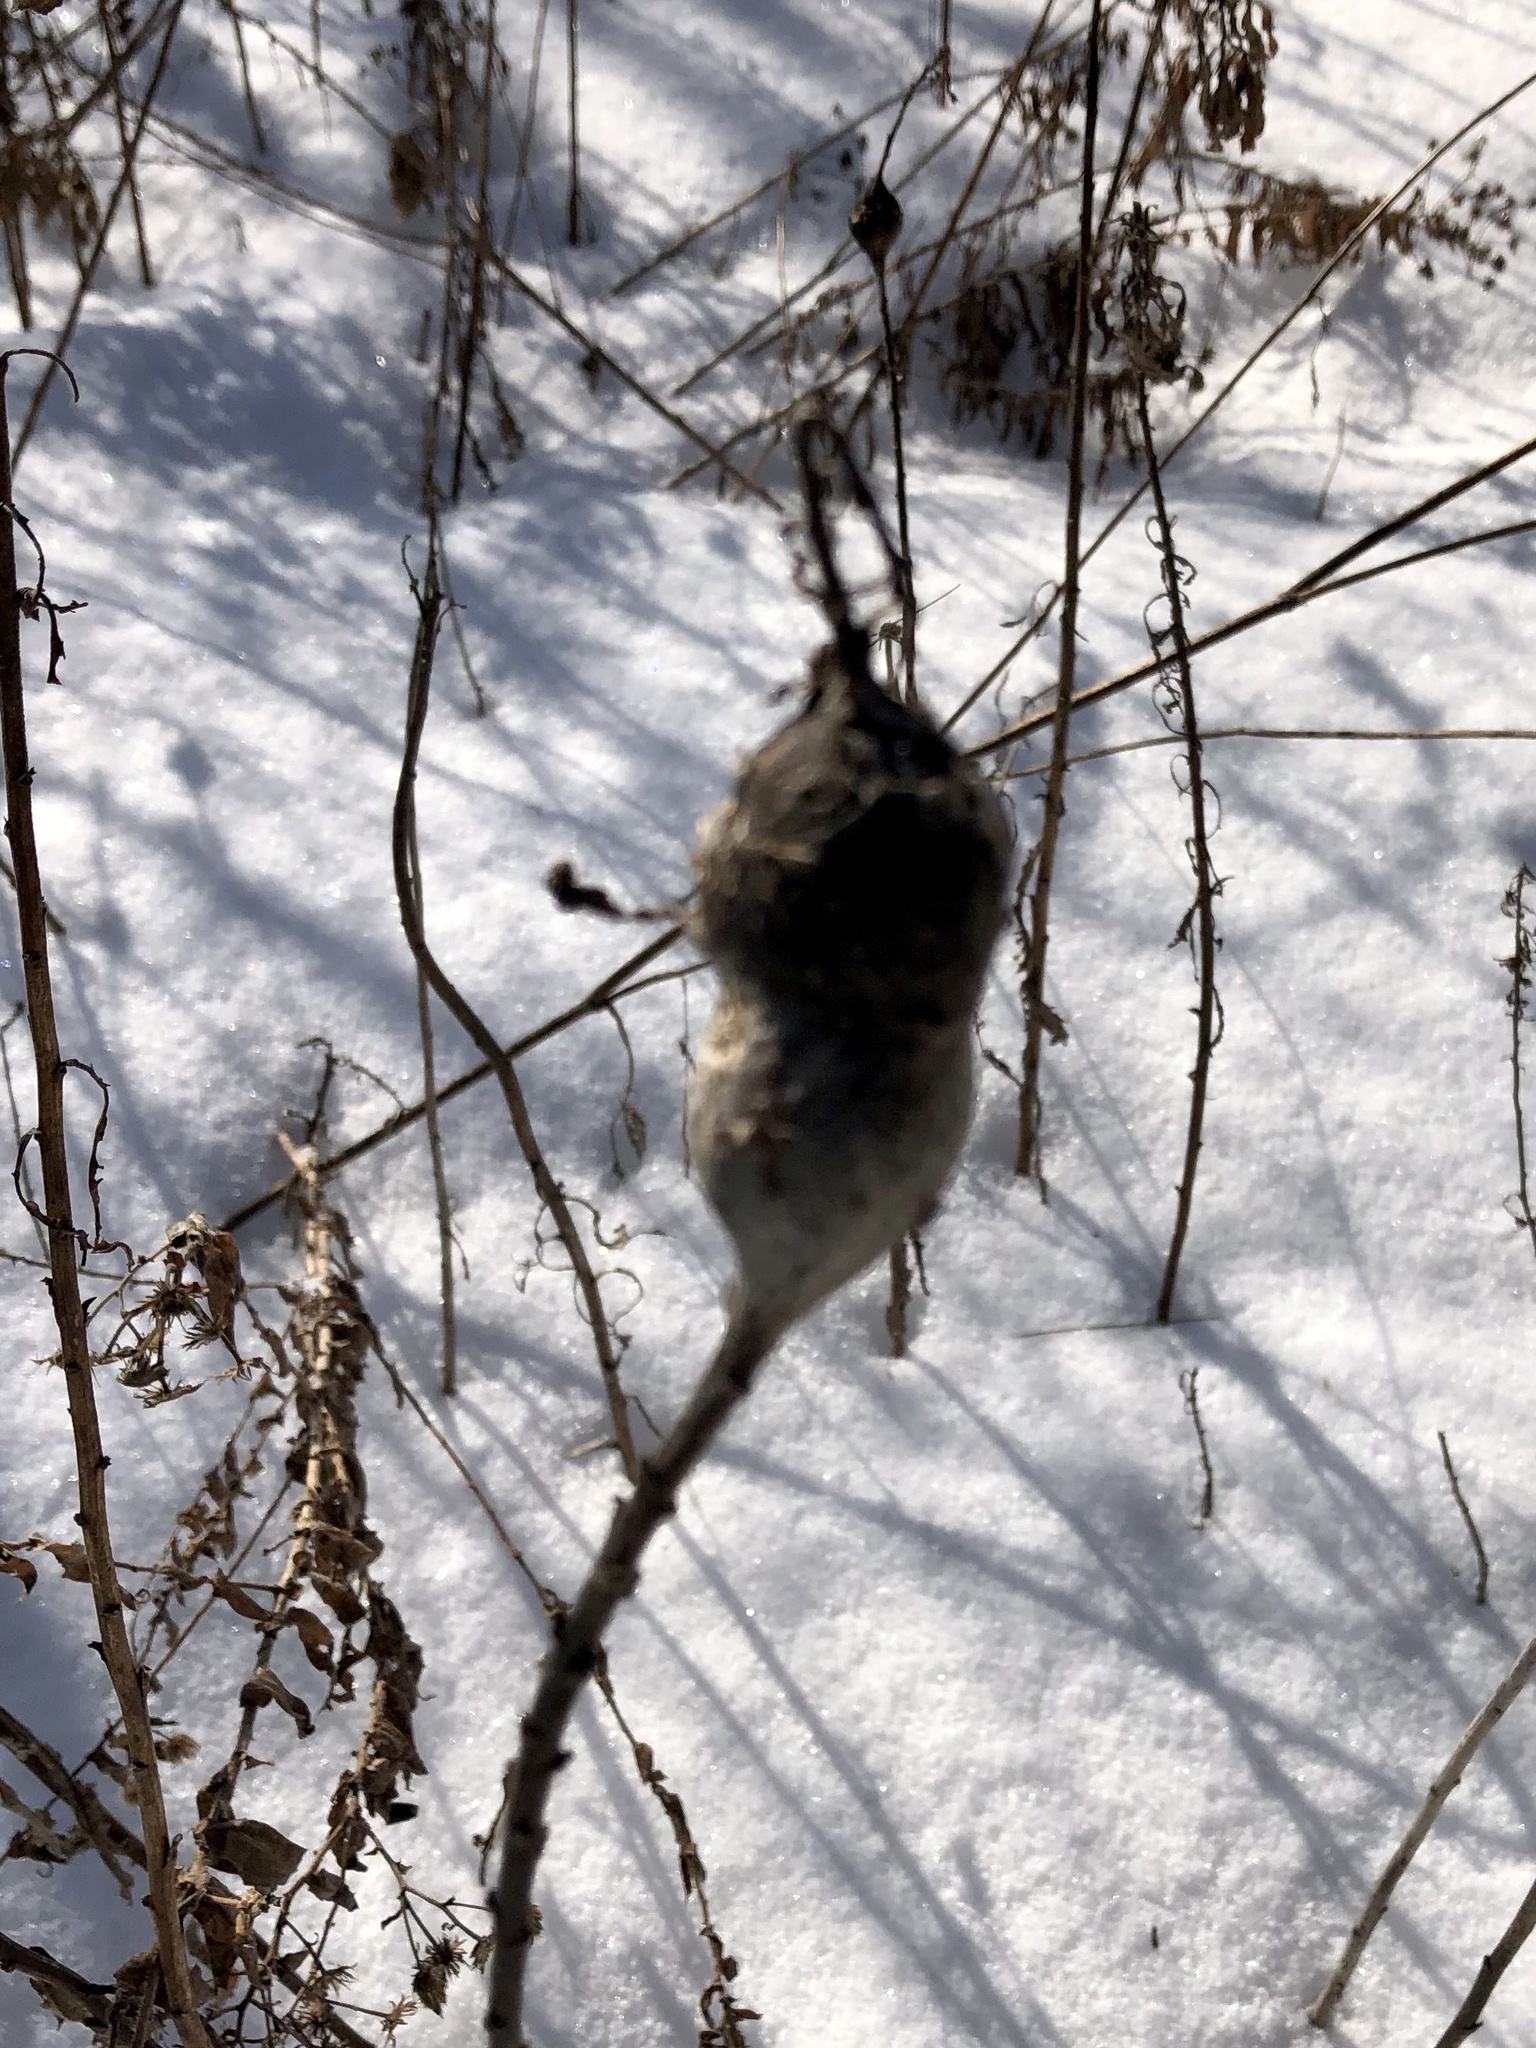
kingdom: Animalia
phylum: Arthropoda
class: Insecta
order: Diptera
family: Tephritidae
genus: Eurosta
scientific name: Eurosta solidaginis
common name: Goldenrod gall fly
